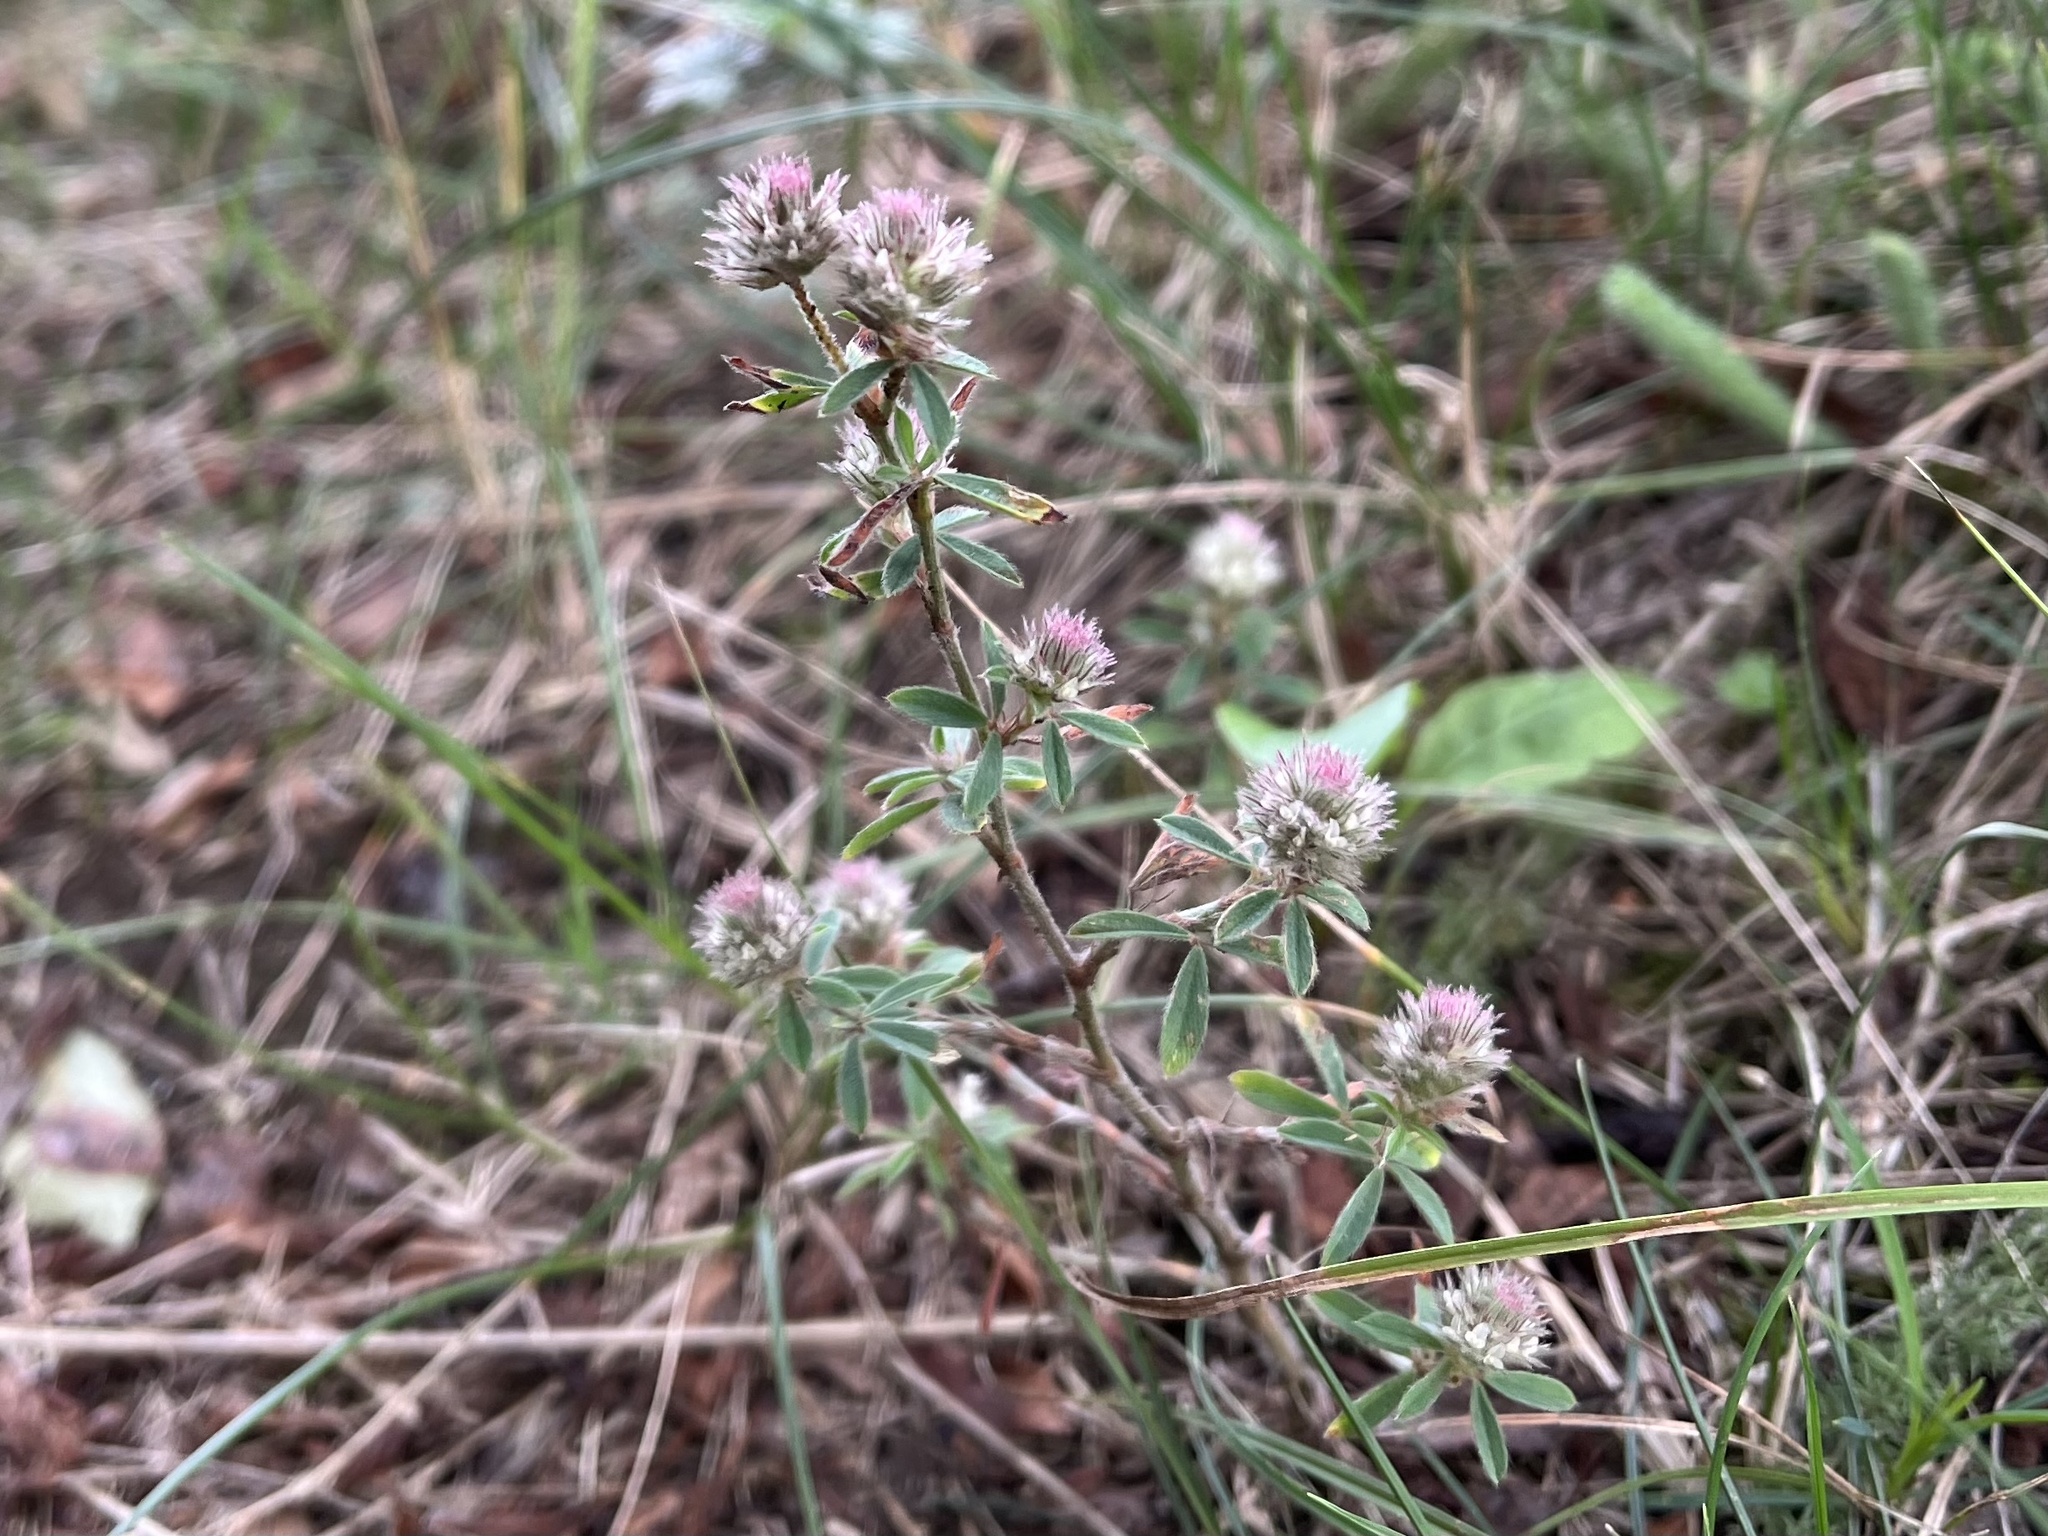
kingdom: Plantae
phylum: Tracheophyta
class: Magnoliopsida
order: Fabales
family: Fabaceae
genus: Trifolium
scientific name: Trifolium arvense
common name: Hare's-foot clover
